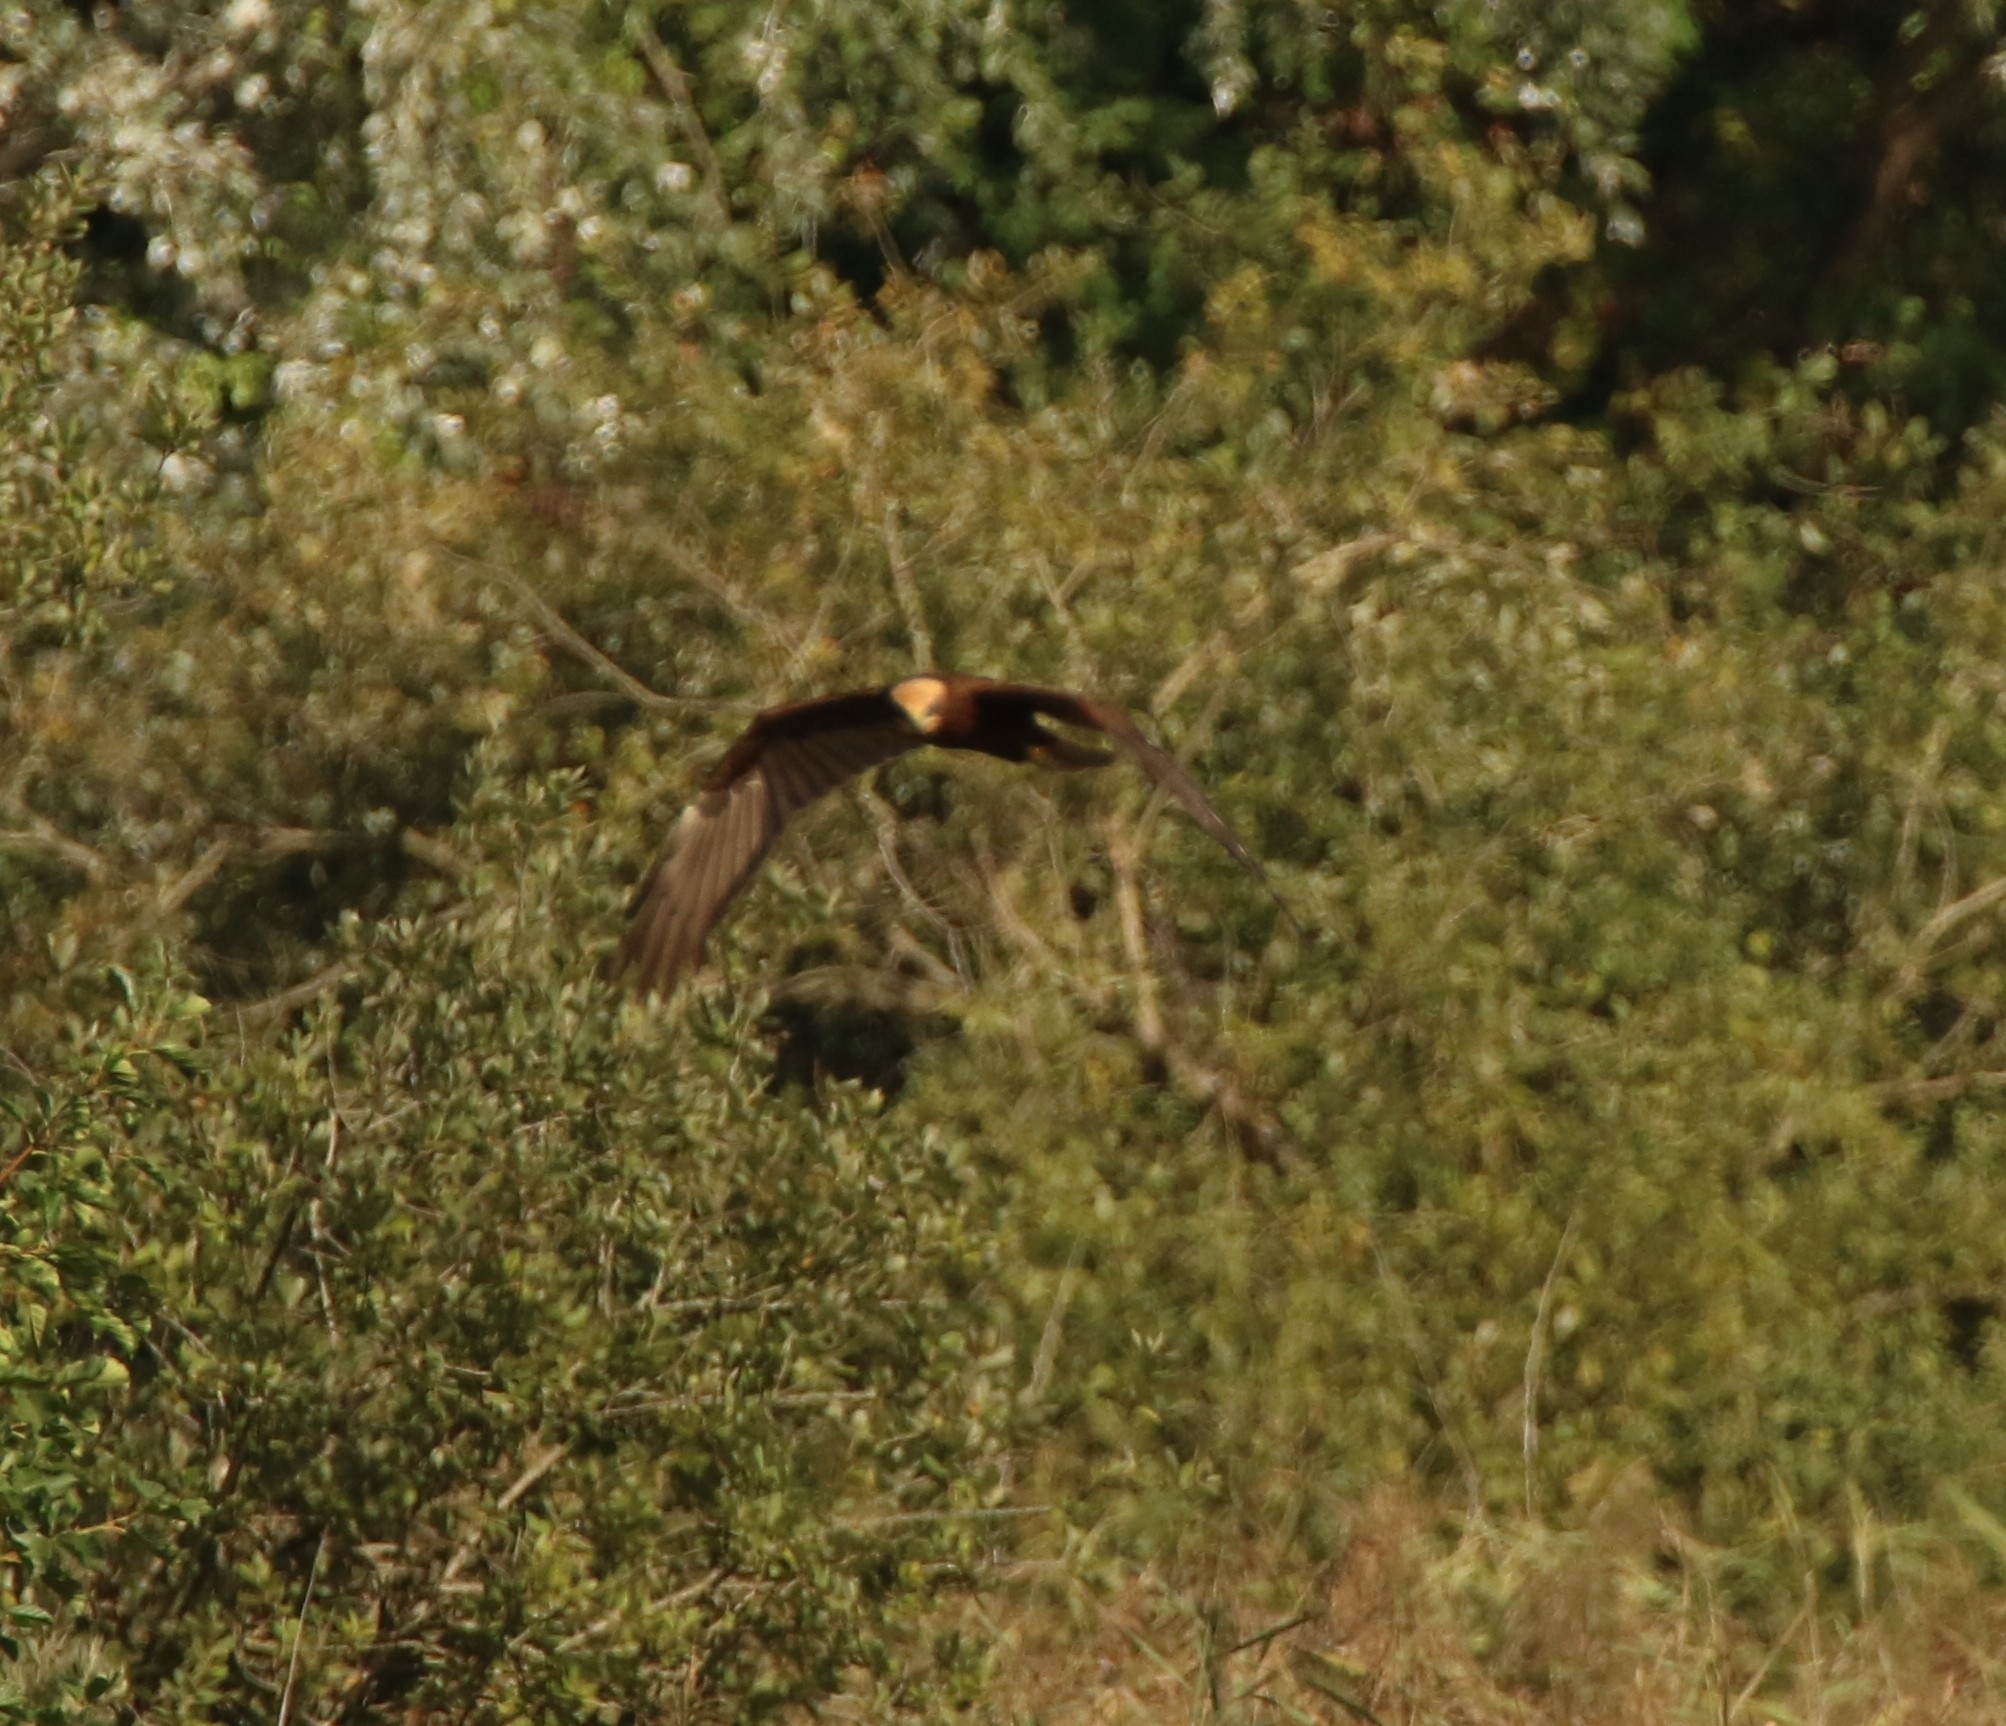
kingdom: Animalia
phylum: Chordata
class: Aves
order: Accipitriformes
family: Accipitridae
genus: Circus
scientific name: Circus aeruginosus
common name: Western marsh harrier
